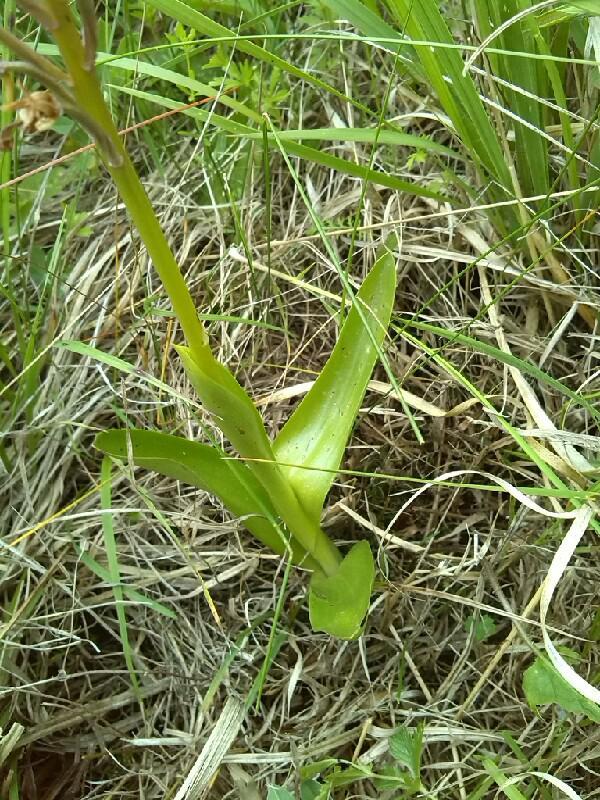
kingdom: Plantae
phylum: Tracheophyta
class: Liliopsida
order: Asparagales
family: Orchidaceae
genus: Orchis
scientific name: Orchis militaris
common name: Military orchid
